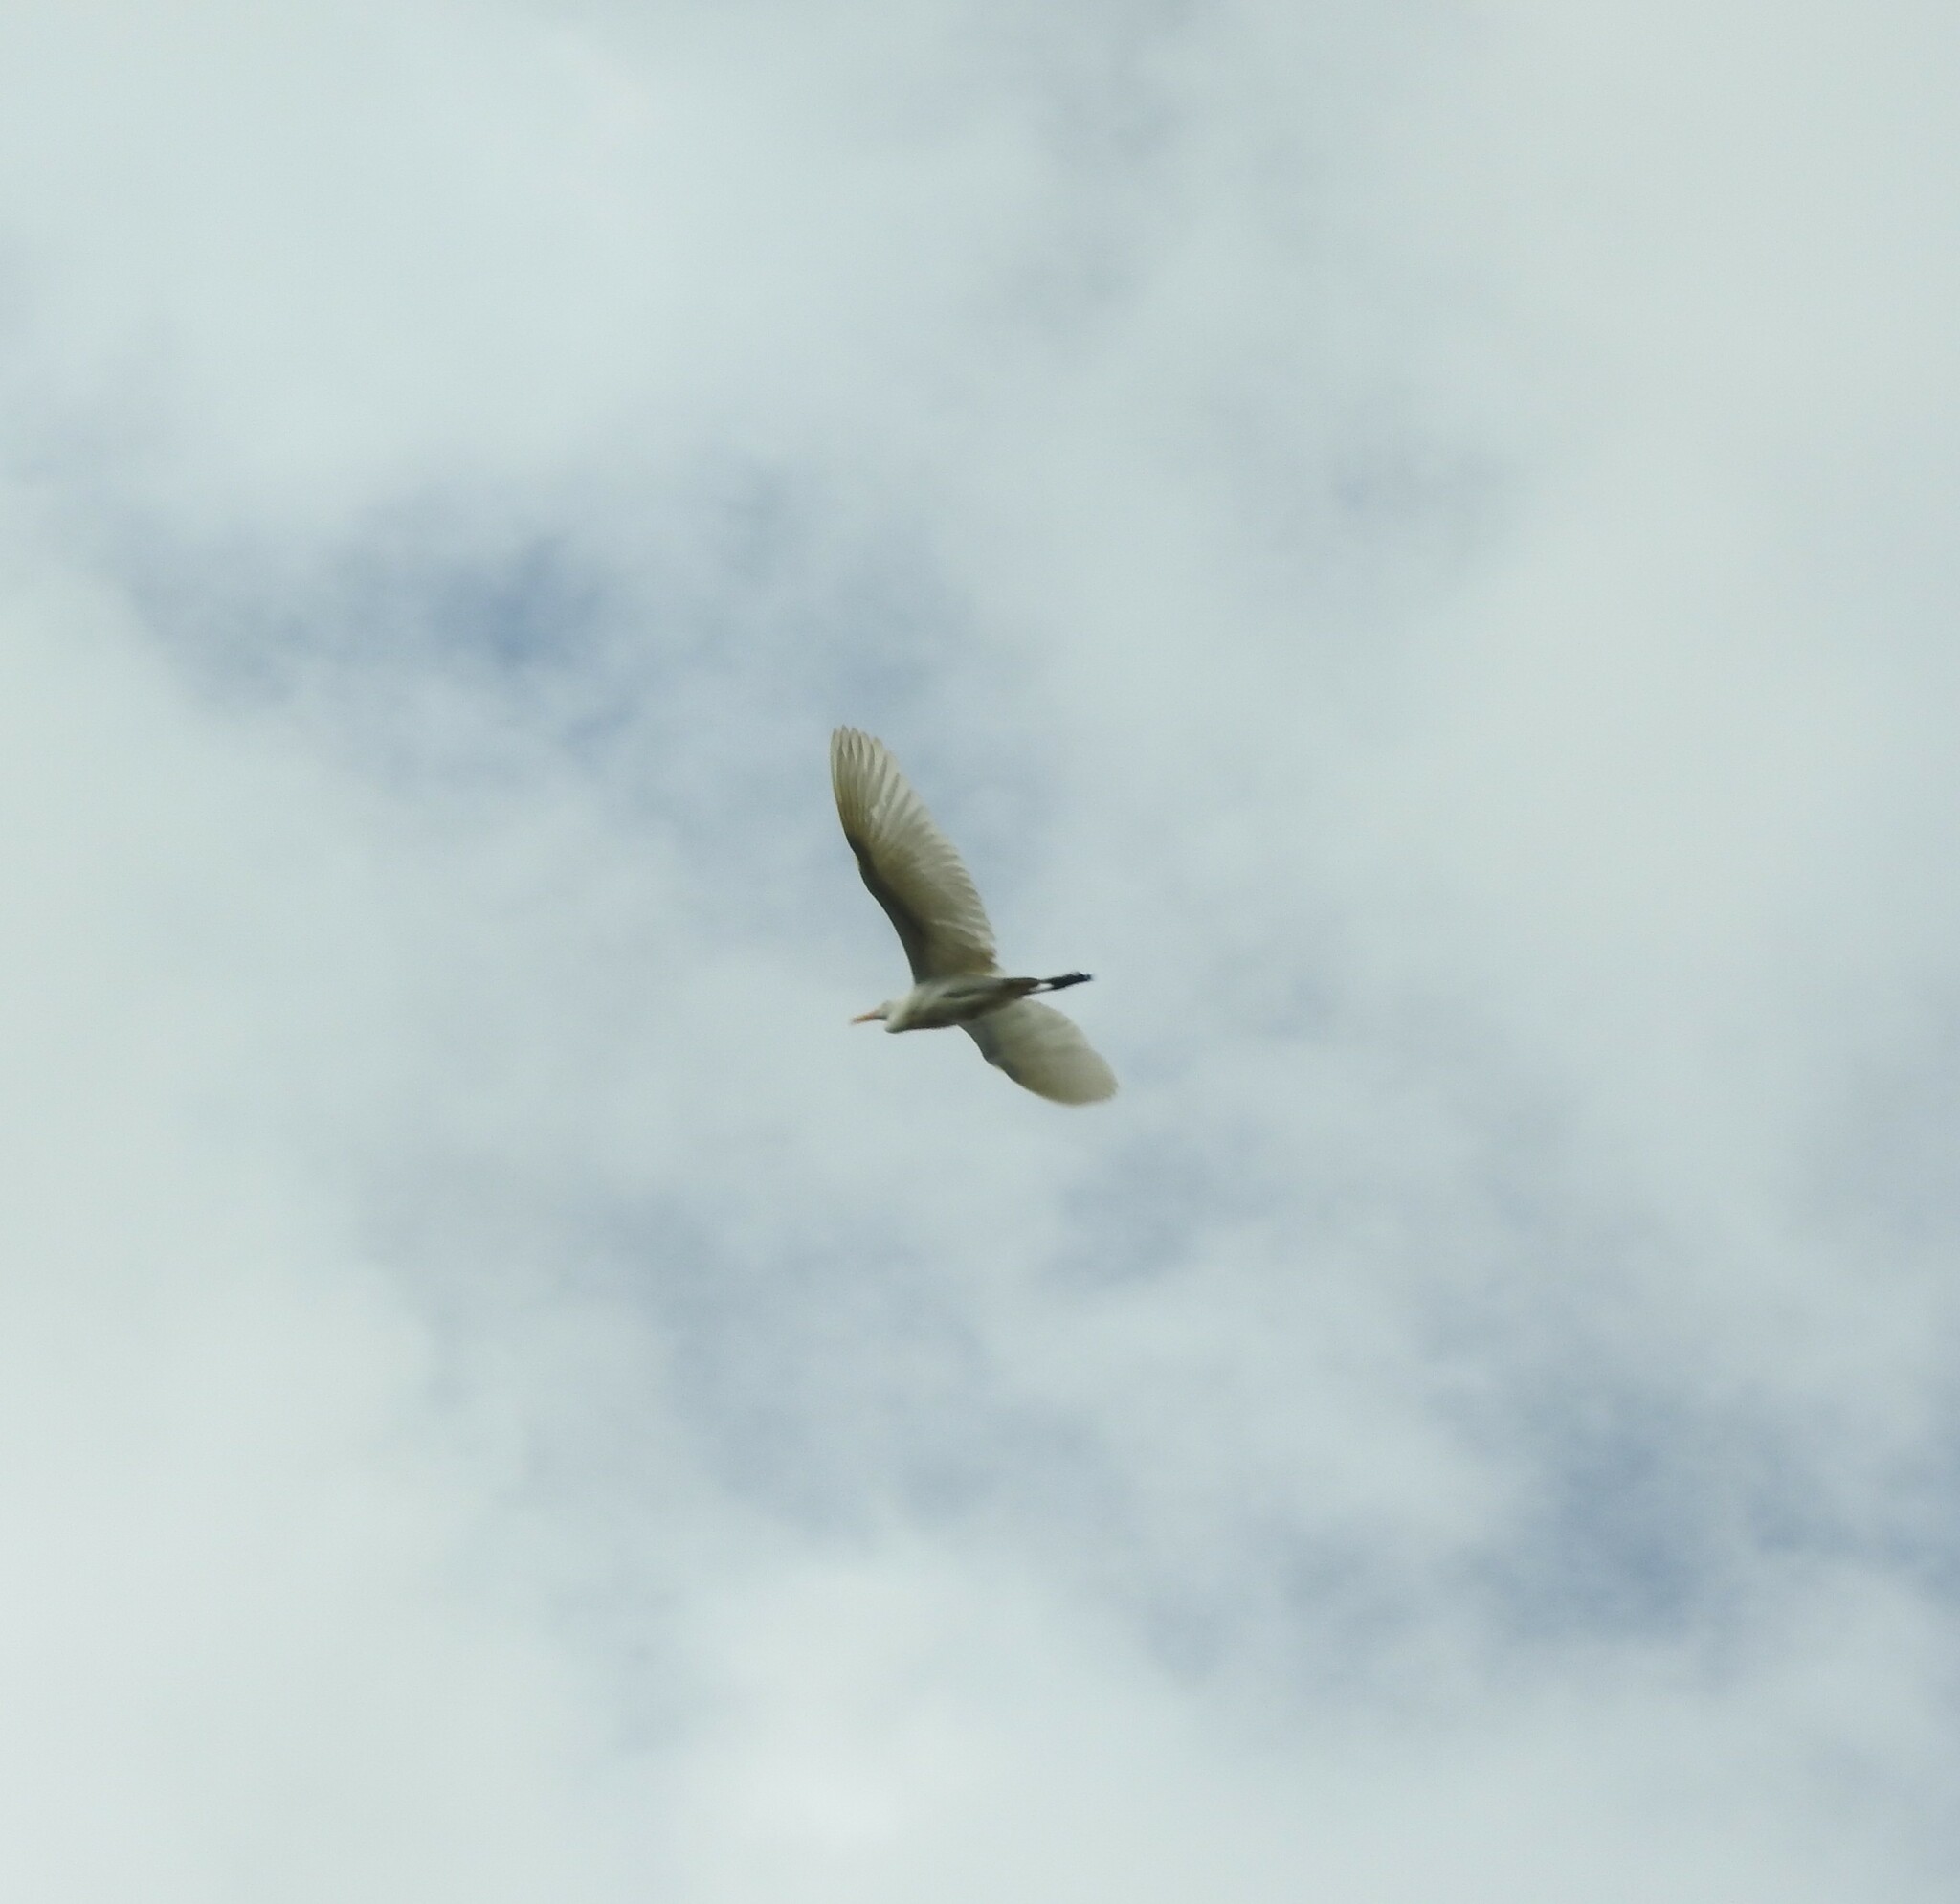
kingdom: Animalia
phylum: Chordata
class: Aves
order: Pelecaniformes
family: Ardeidae
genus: Bubulcus
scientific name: Bubulcus ibis
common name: Cattle egret
